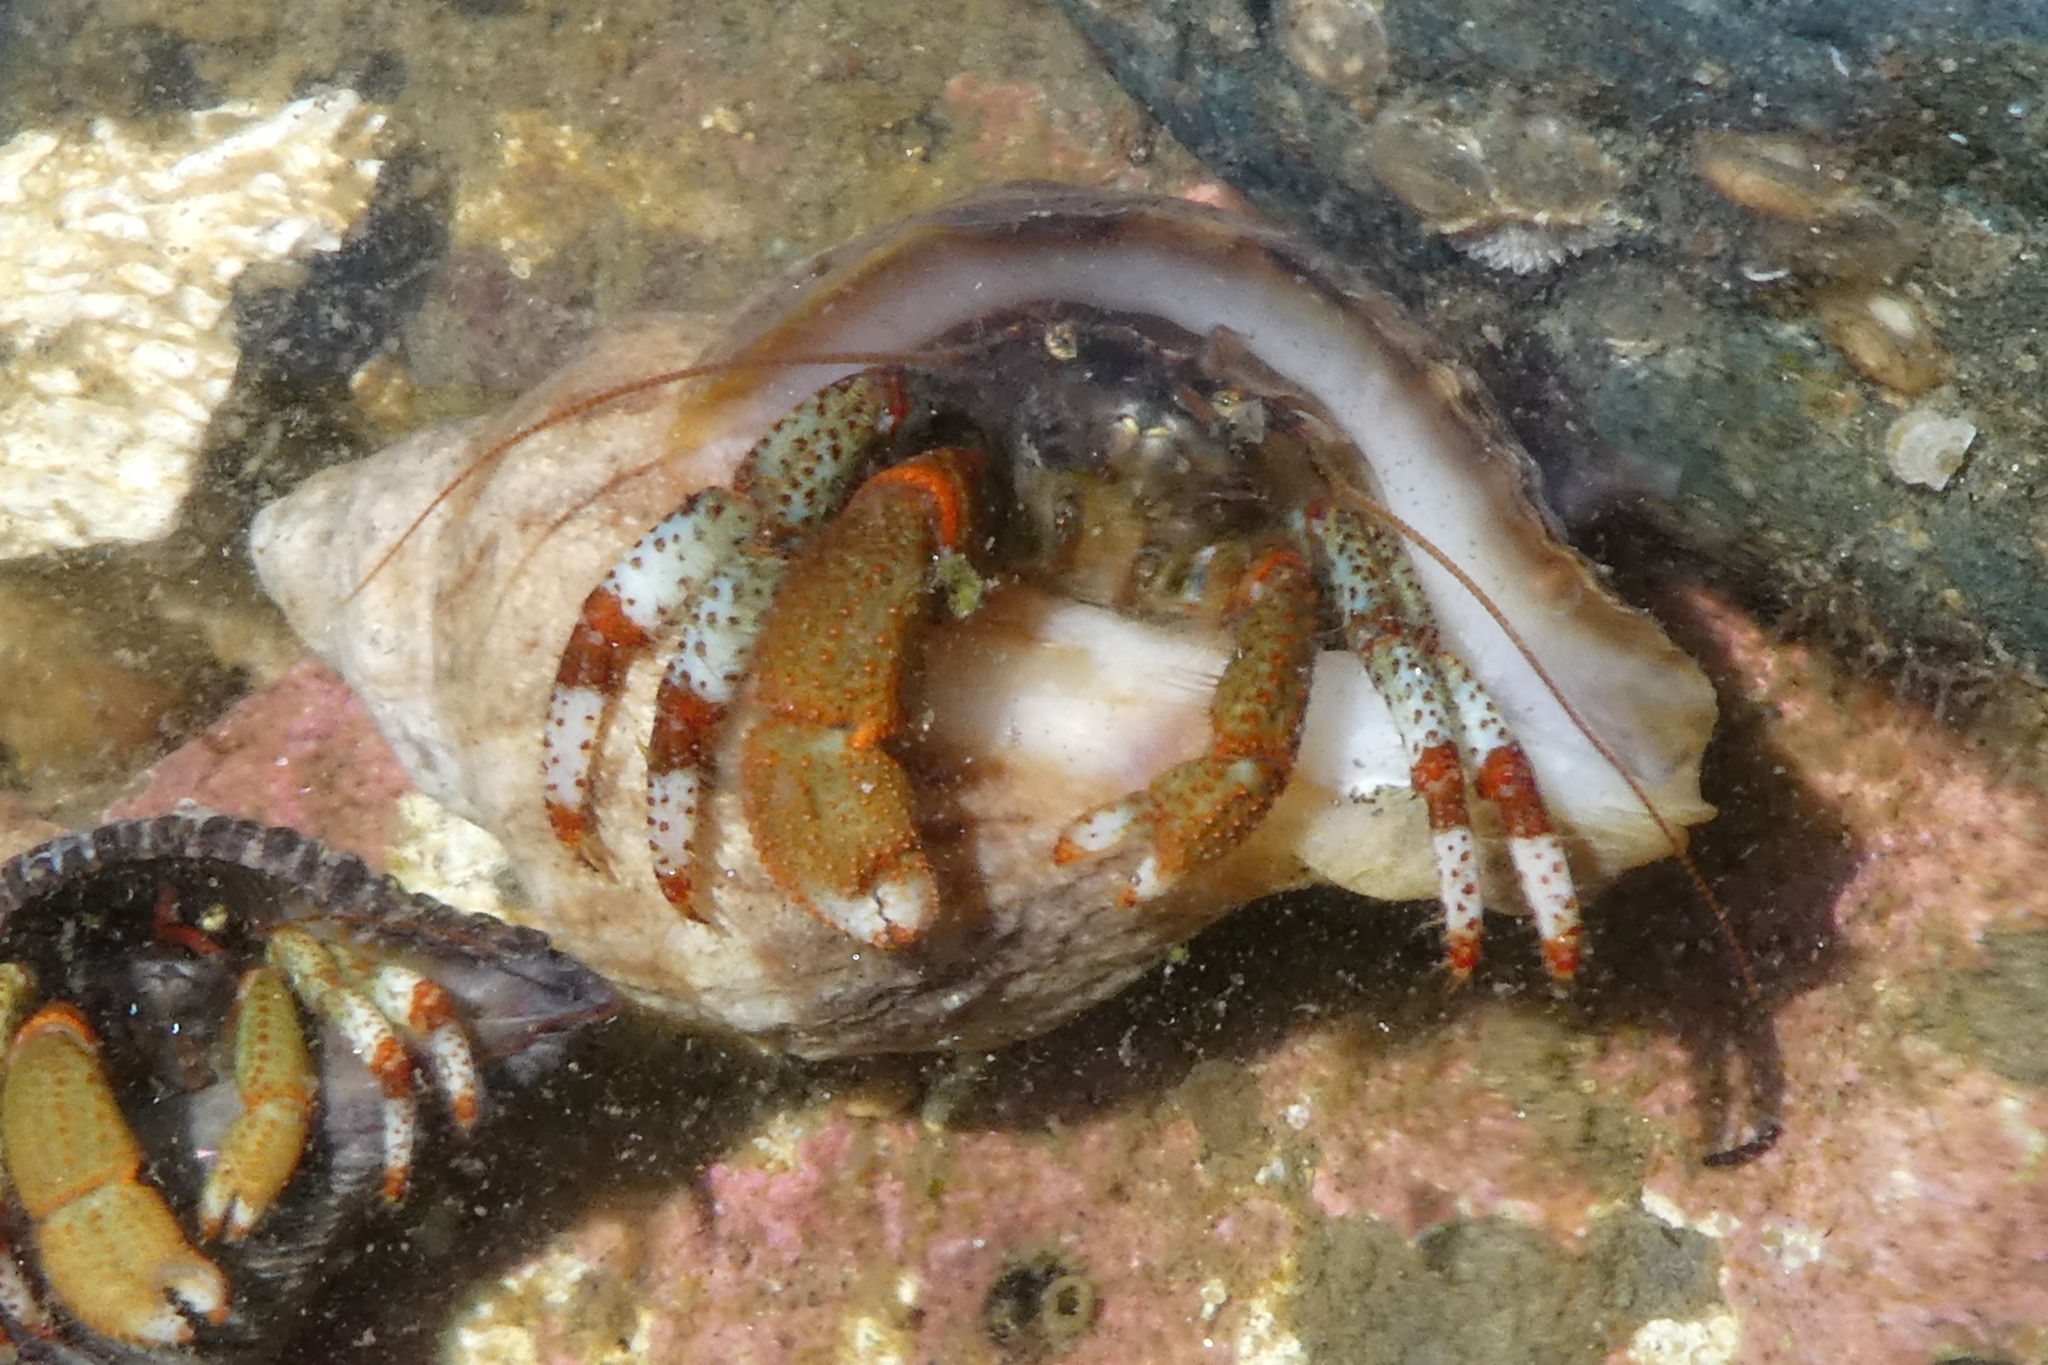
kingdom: Animalia
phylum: Arthropoda
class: Malacostraca
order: Decapoda
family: Paguridae
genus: Pagurus
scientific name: Pagurus beringanus
